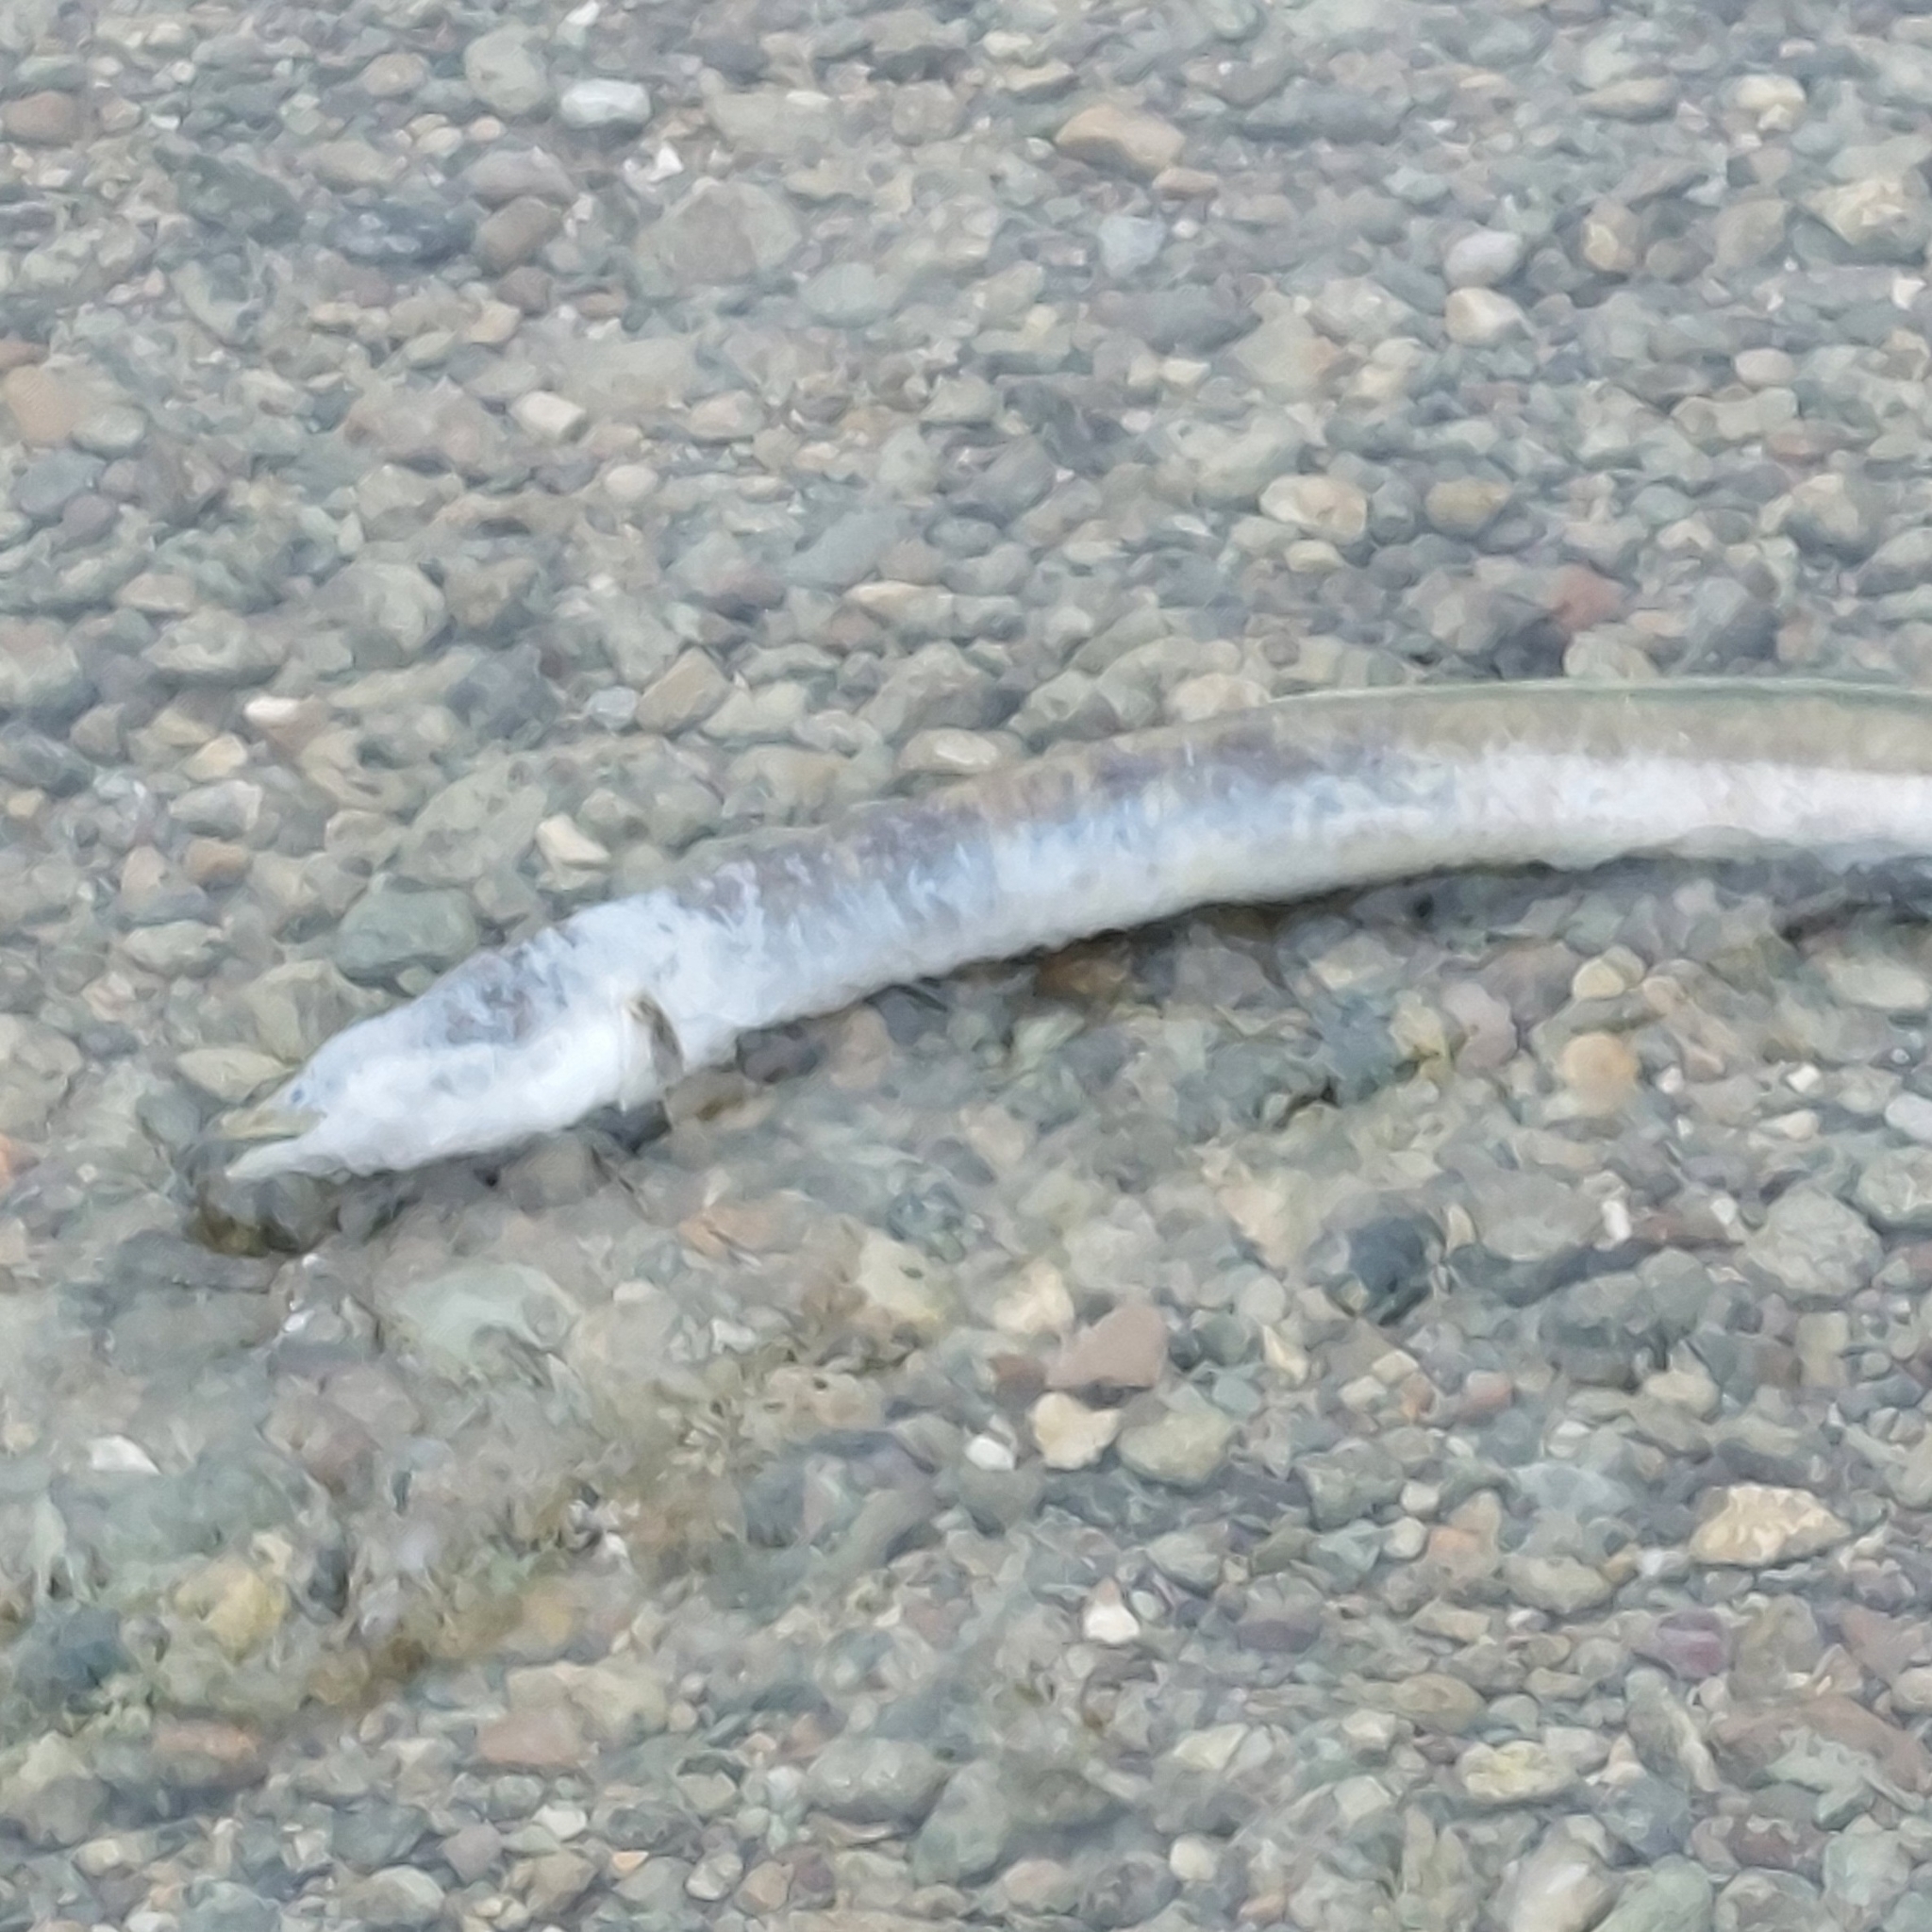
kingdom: Animalia
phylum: Chordata
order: Anguilliformes
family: Anguillidae
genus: Anguilla
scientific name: Anguilla anguilla
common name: European eel
